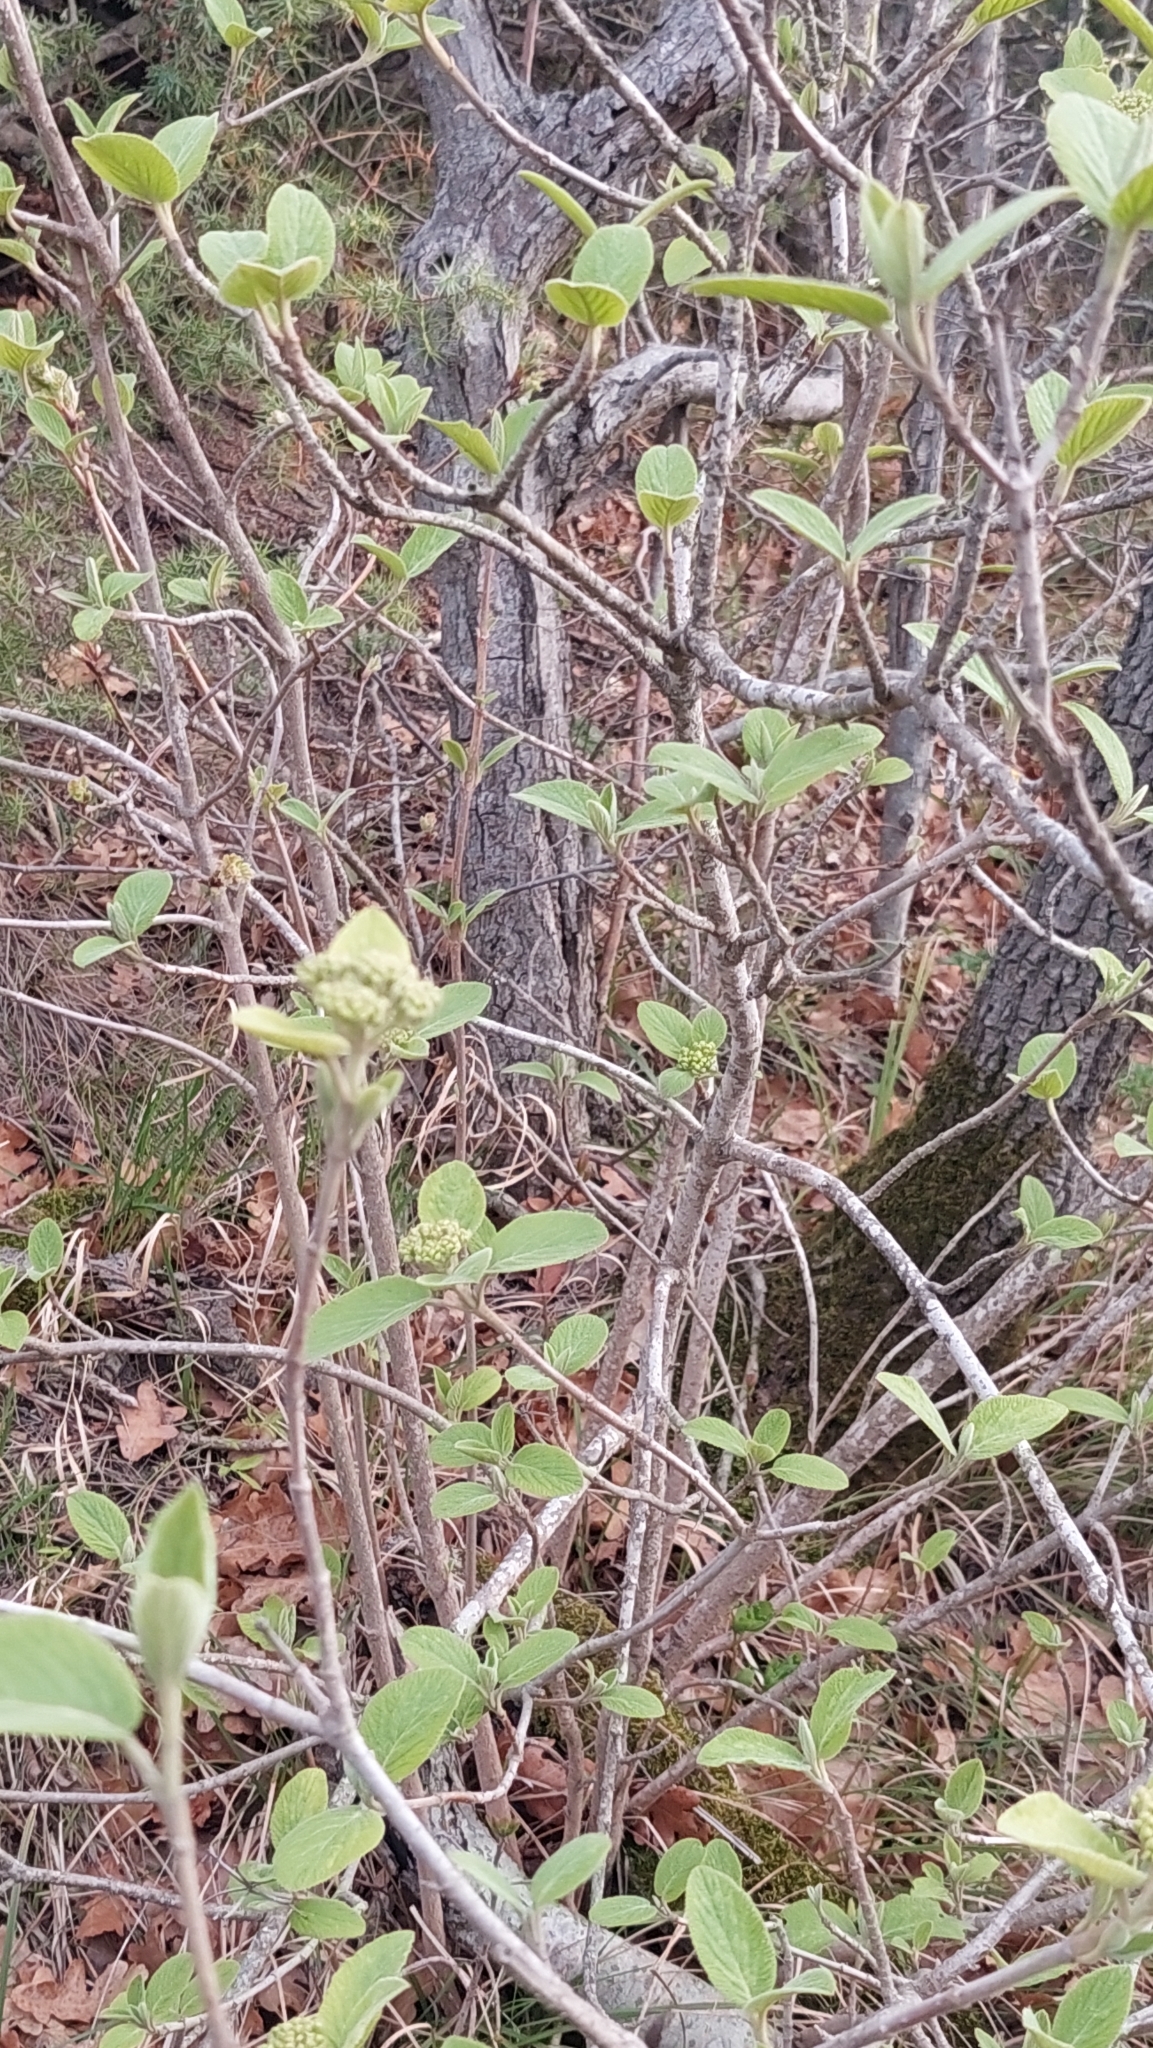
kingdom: Plantae
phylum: Tracheophyta
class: Magnoliopsida
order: Dipsacales
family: Viburnaceae
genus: Viburnum
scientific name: Viburnum lantana
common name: Wayfaring tree
